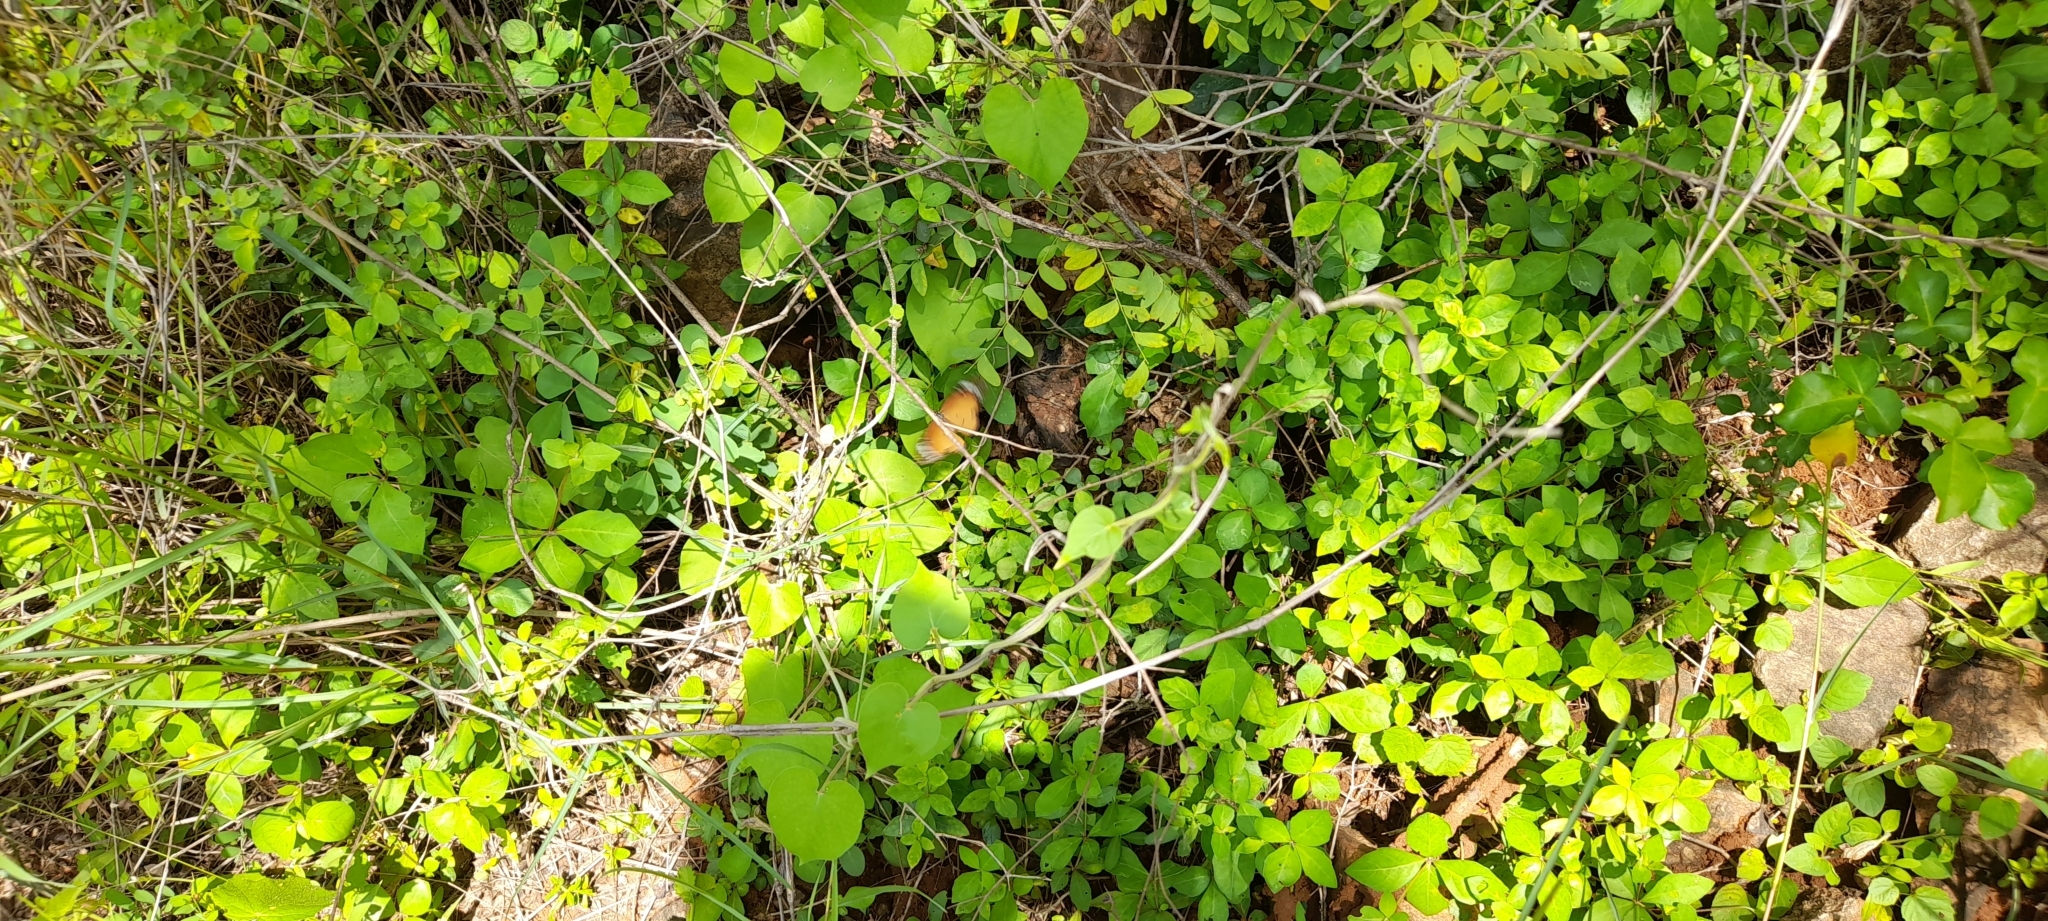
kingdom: Animalia
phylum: Arthropoda
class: Insecta
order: Lepidoptera
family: Nymphalidae
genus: Danaus
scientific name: Danaus chrysippus
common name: Plain tiger
